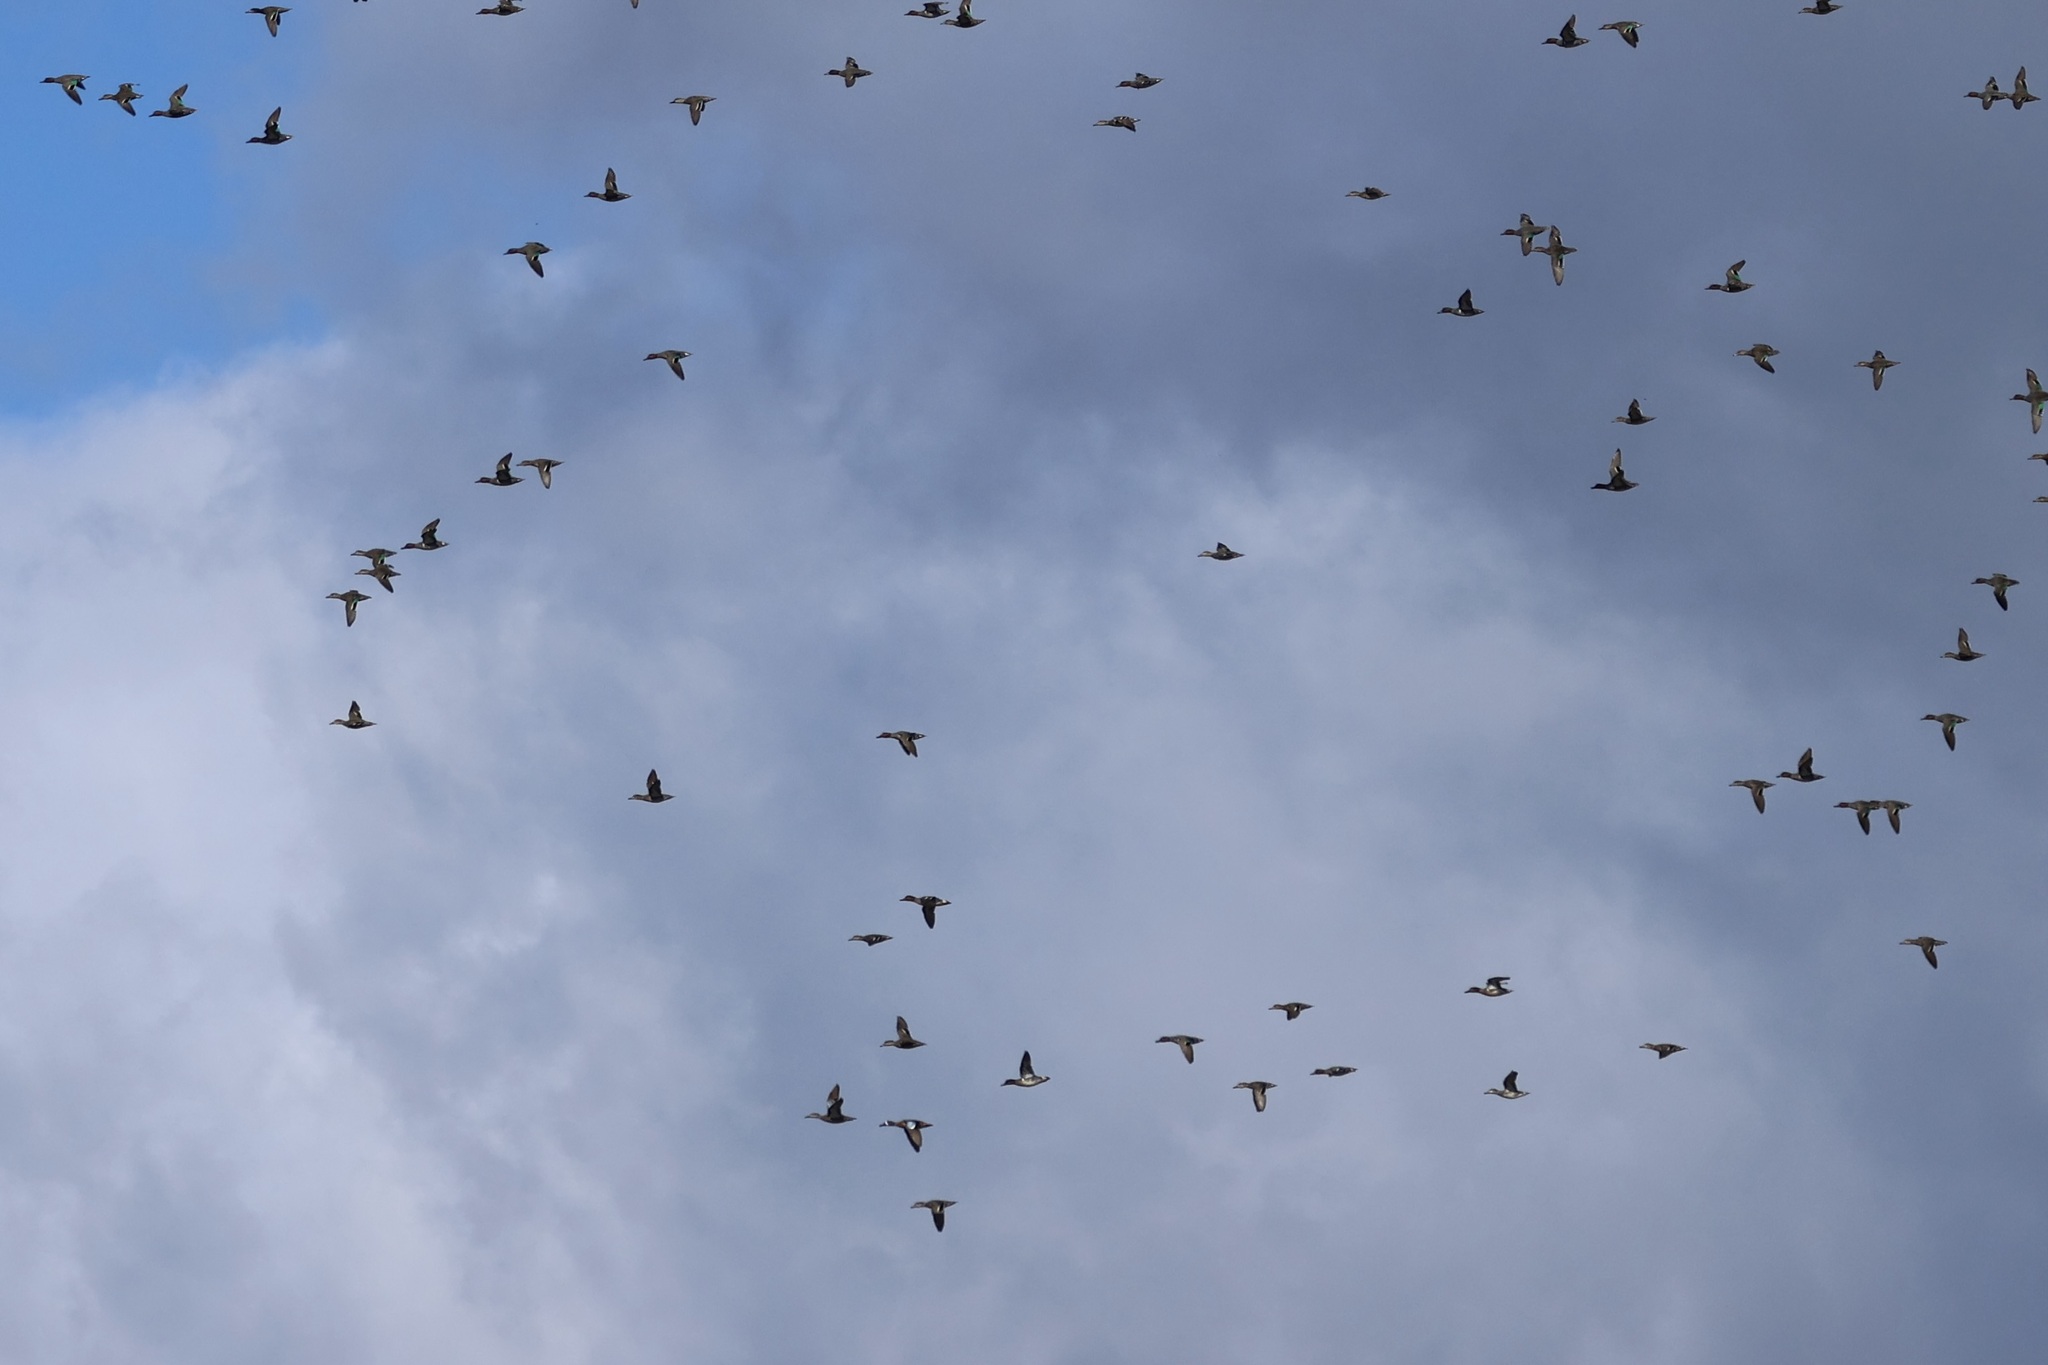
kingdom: Animalia
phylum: Chordata
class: Aves
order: Anseriformes
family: Anatidae
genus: Anas
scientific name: Anas crecca
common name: Eurasian teal
